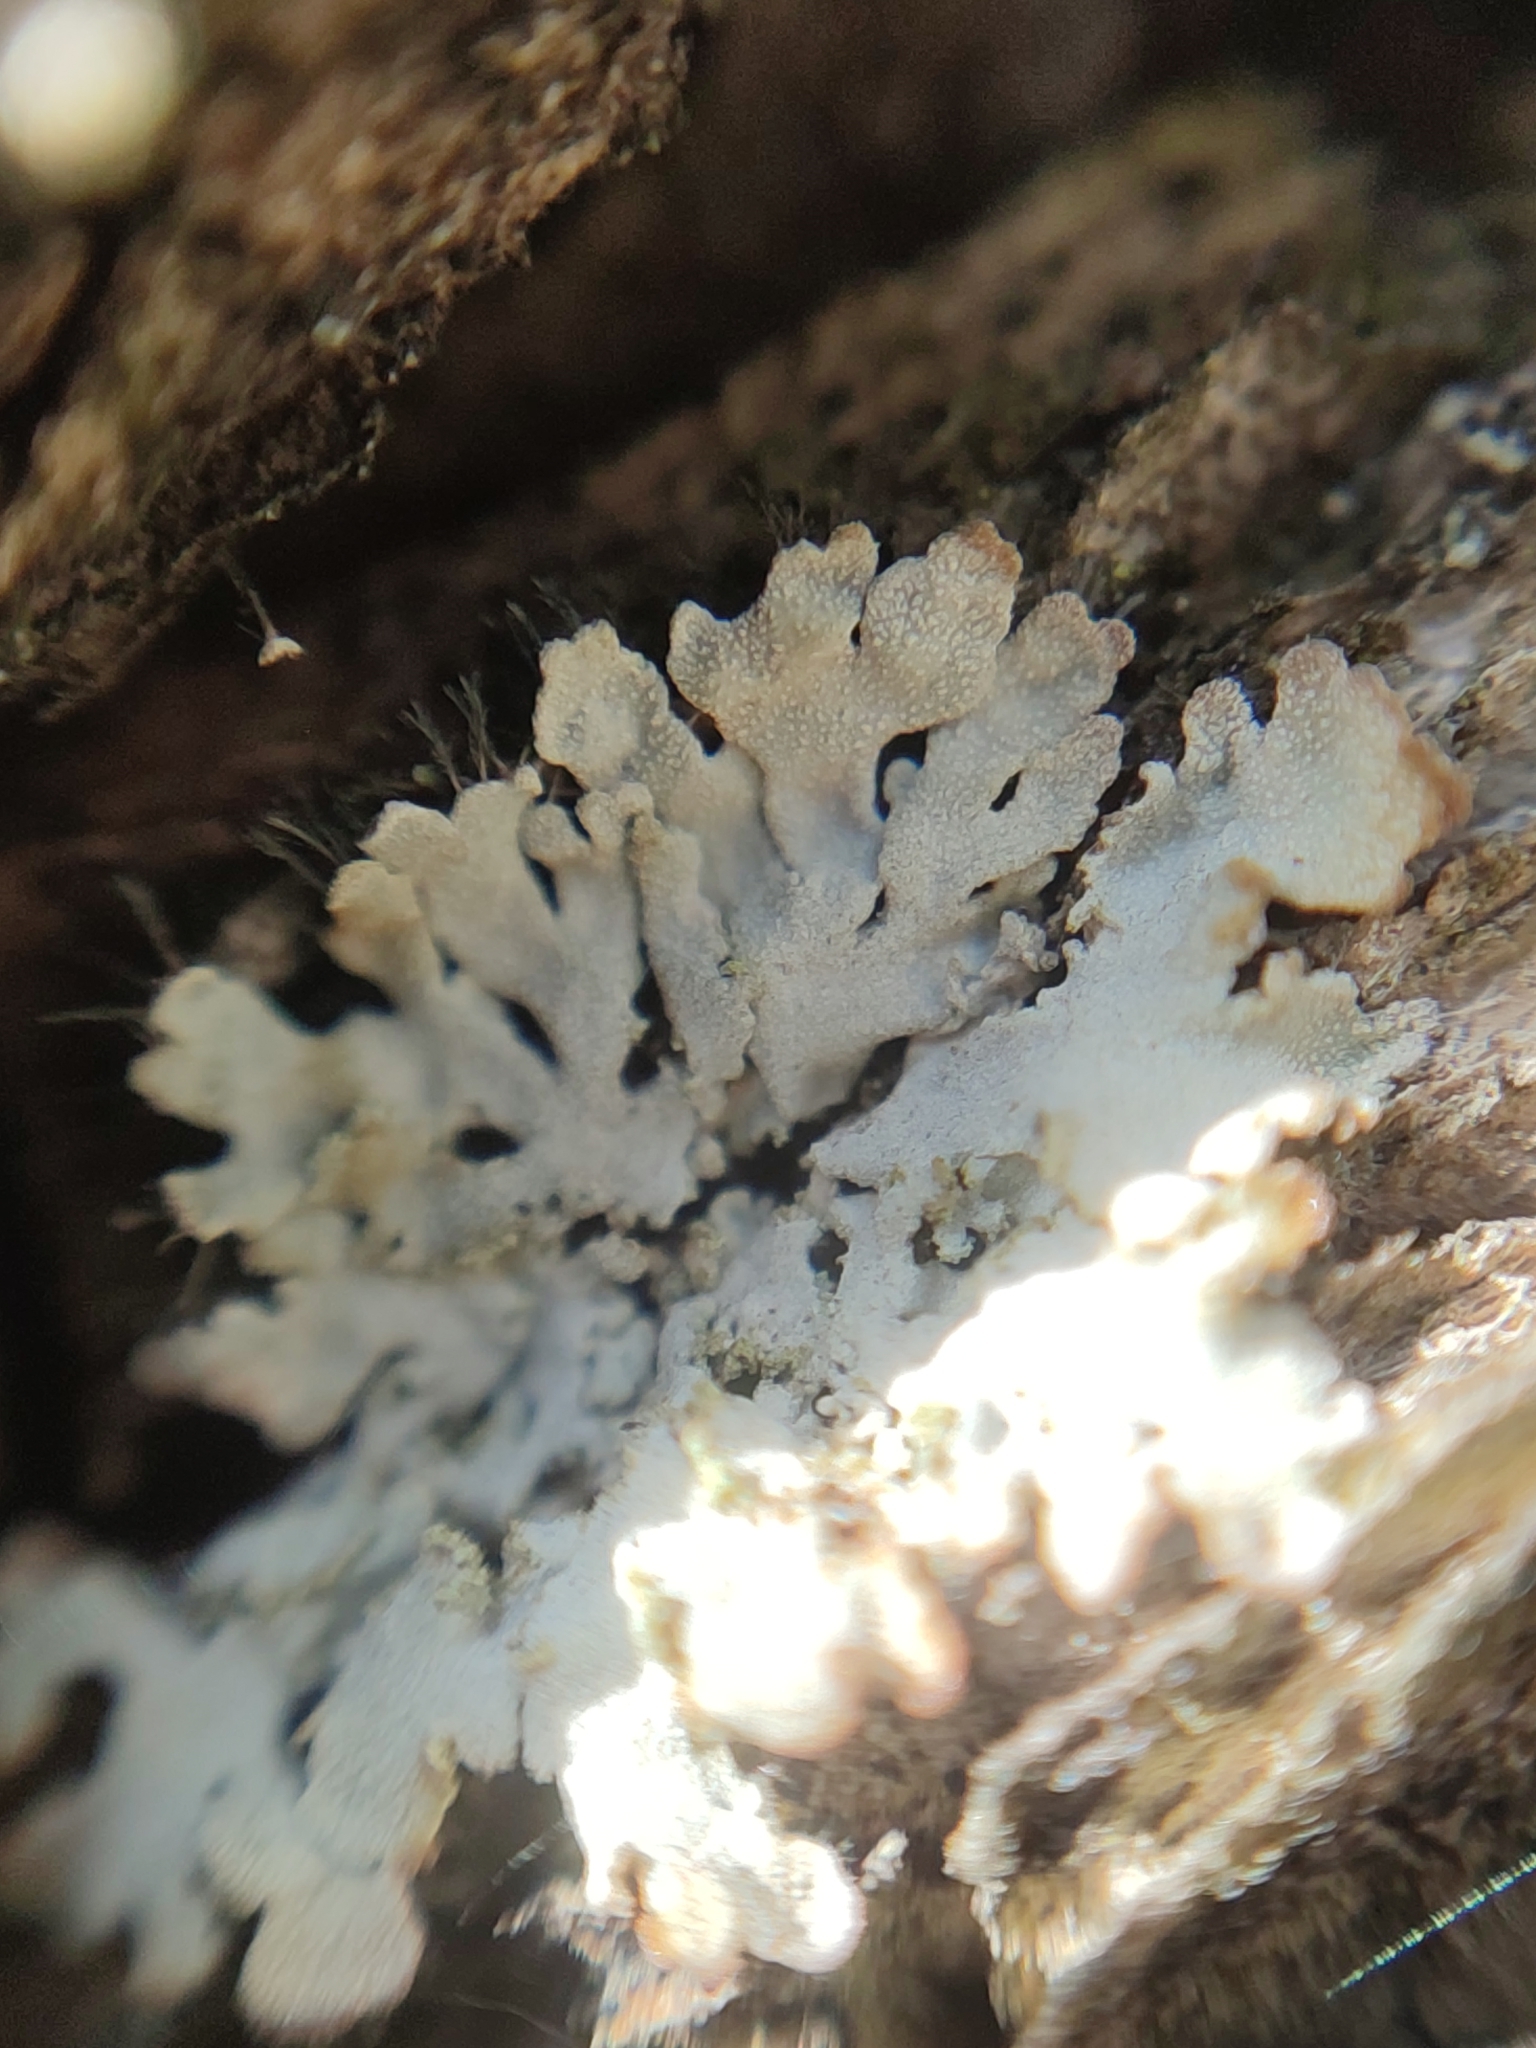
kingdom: Fungi
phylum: Ascomycota
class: Lecanoromycetes
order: Caliciales
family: Physciaceae
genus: Poeltonia
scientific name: Poeltonia grisea
